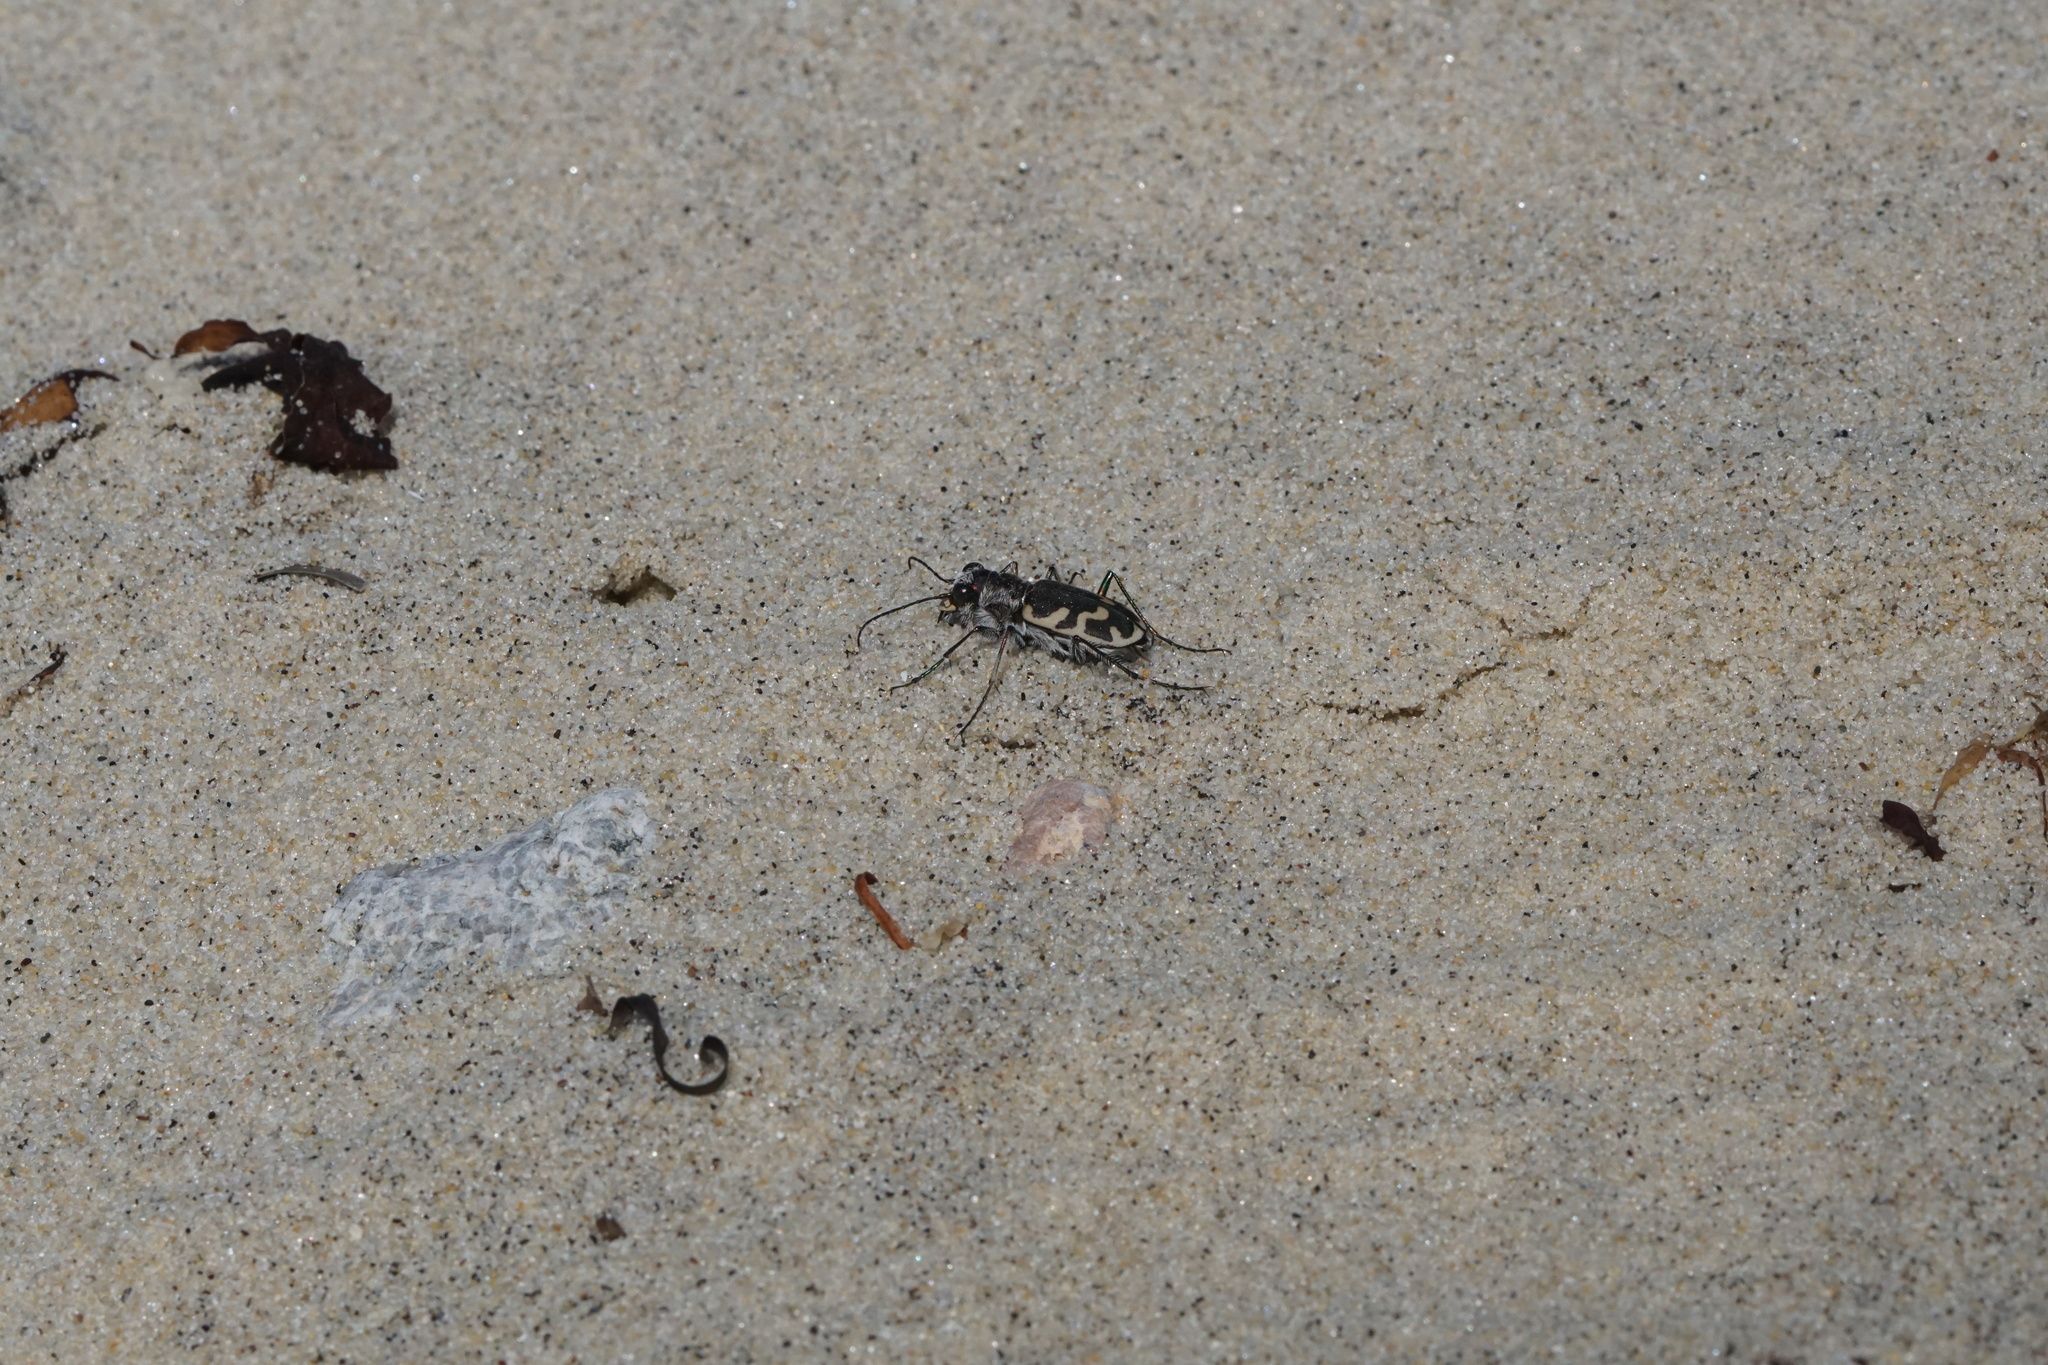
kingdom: Animalia
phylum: Arthropoda
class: Insecta
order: Coleoptera
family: Carabidae
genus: Cicindela
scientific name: Cicindela formosa
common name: Big sand tiger beetle
